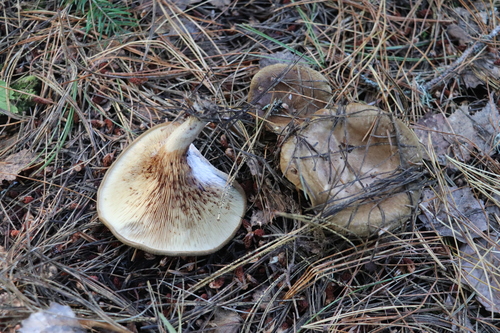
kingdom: Fungi
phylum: Basidiomycota
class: Agaricomycetes
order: Boletales
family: Paxillaceae
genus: Paxillus
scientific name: Paxillus involutus
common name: Brown roll rim
